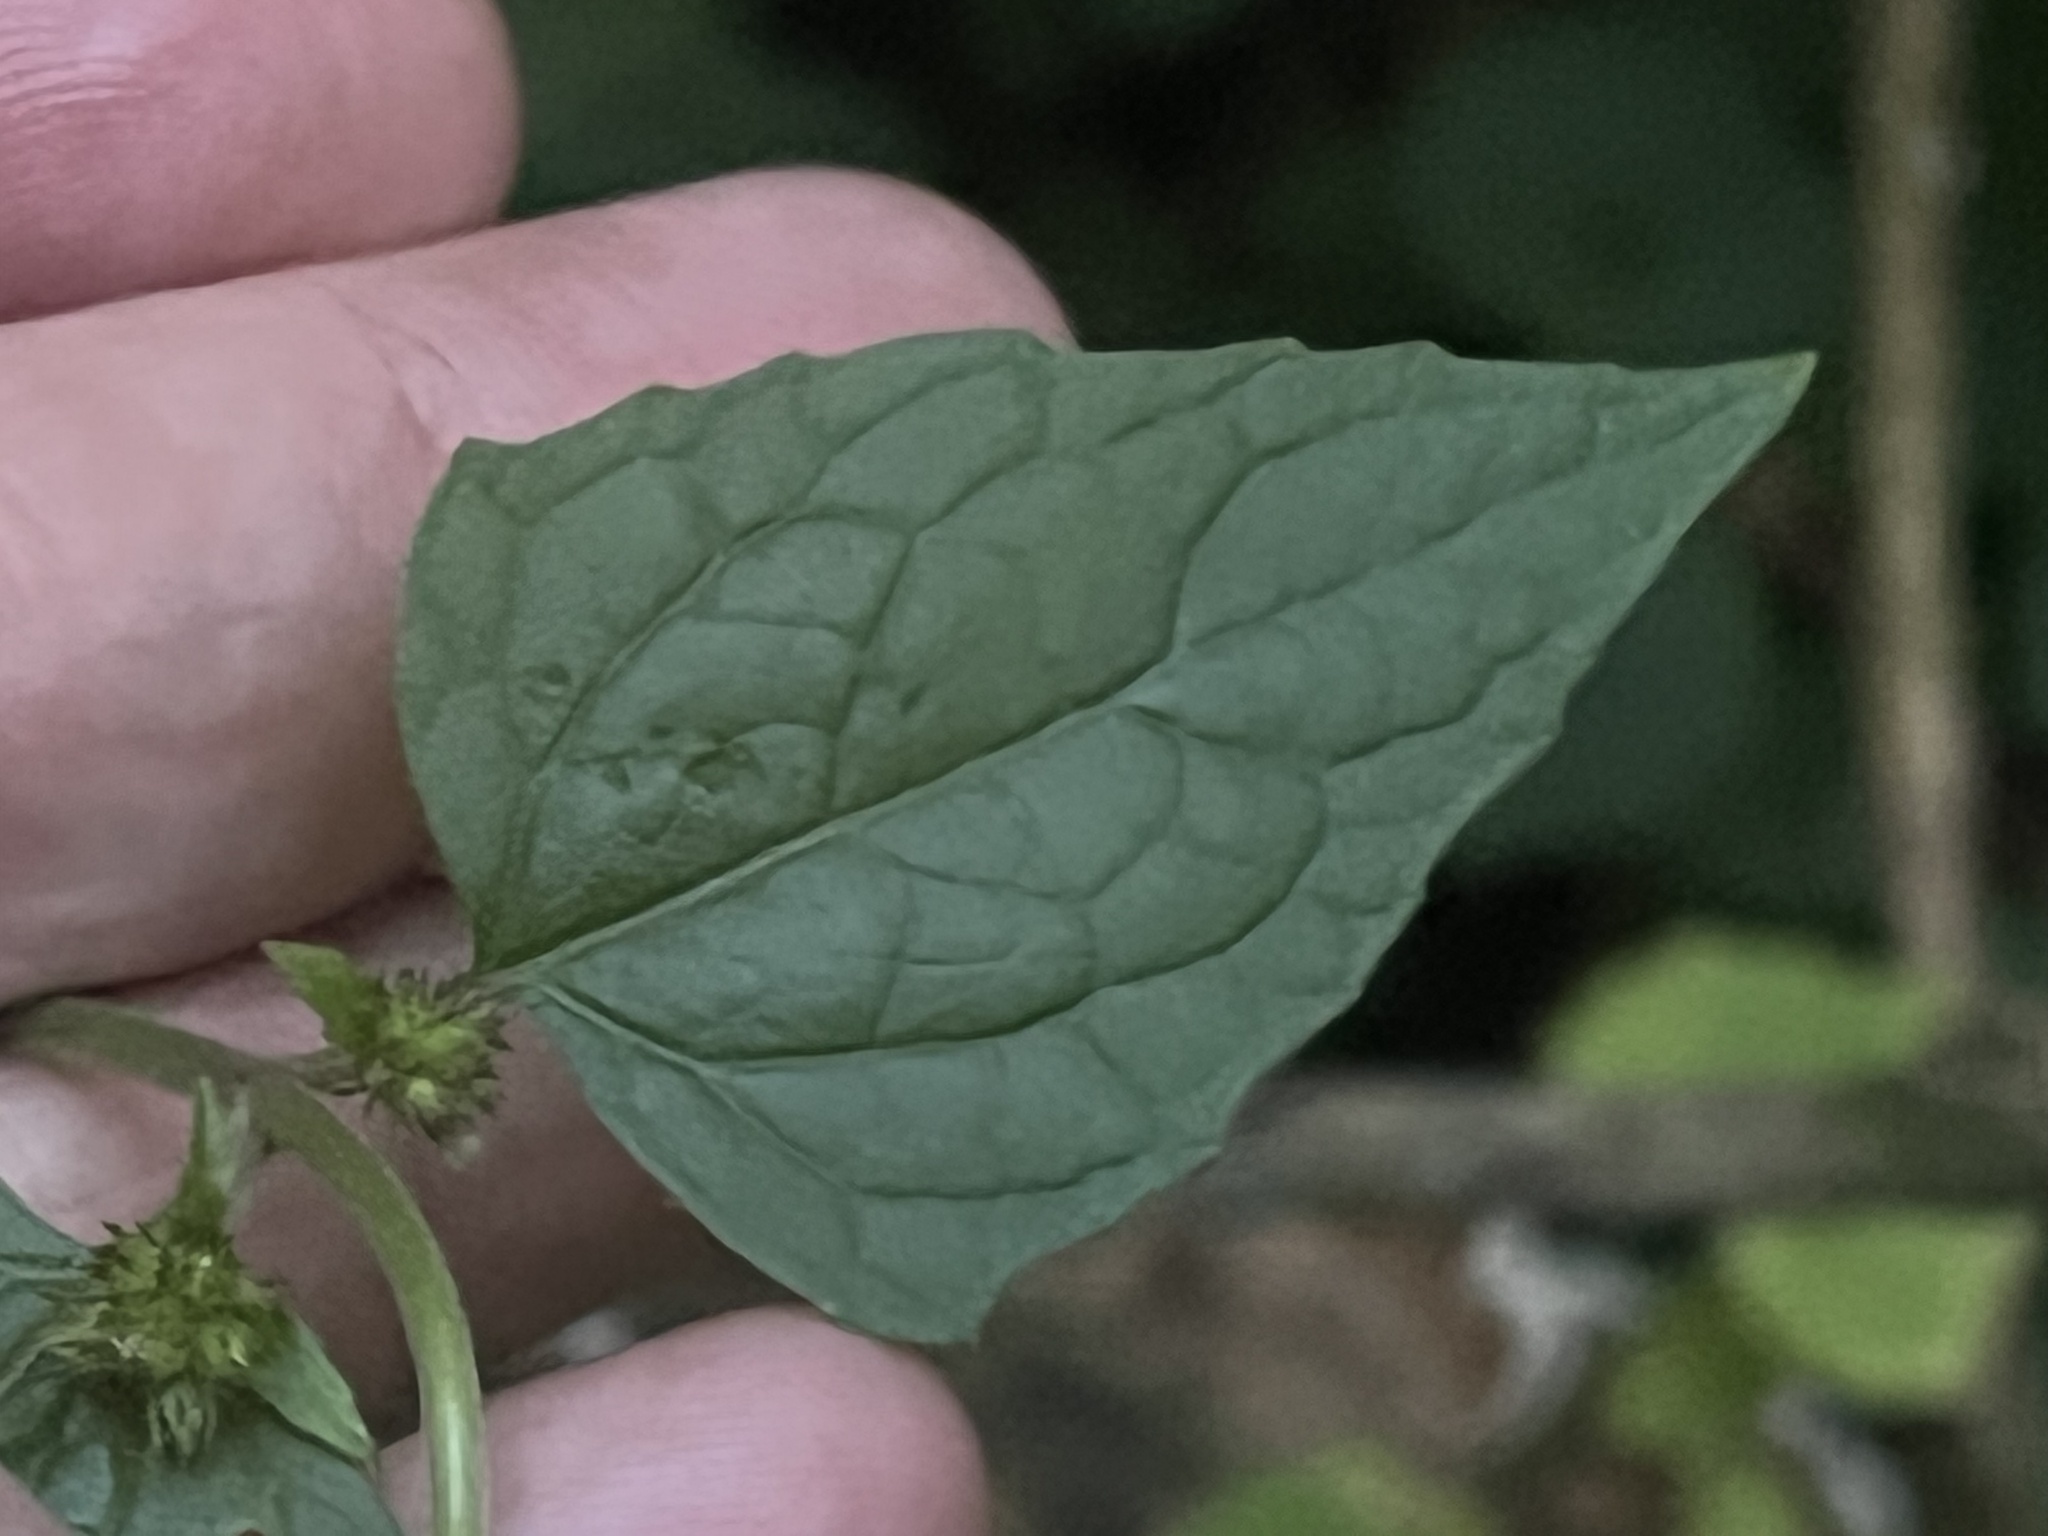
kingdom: Plantae
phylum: Tracheophyta
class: Magnoliopsida
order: Asterales
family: Asteraceae
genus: Conoclinium
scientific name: Conoclinium coelestinum
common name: Blue mistflower
